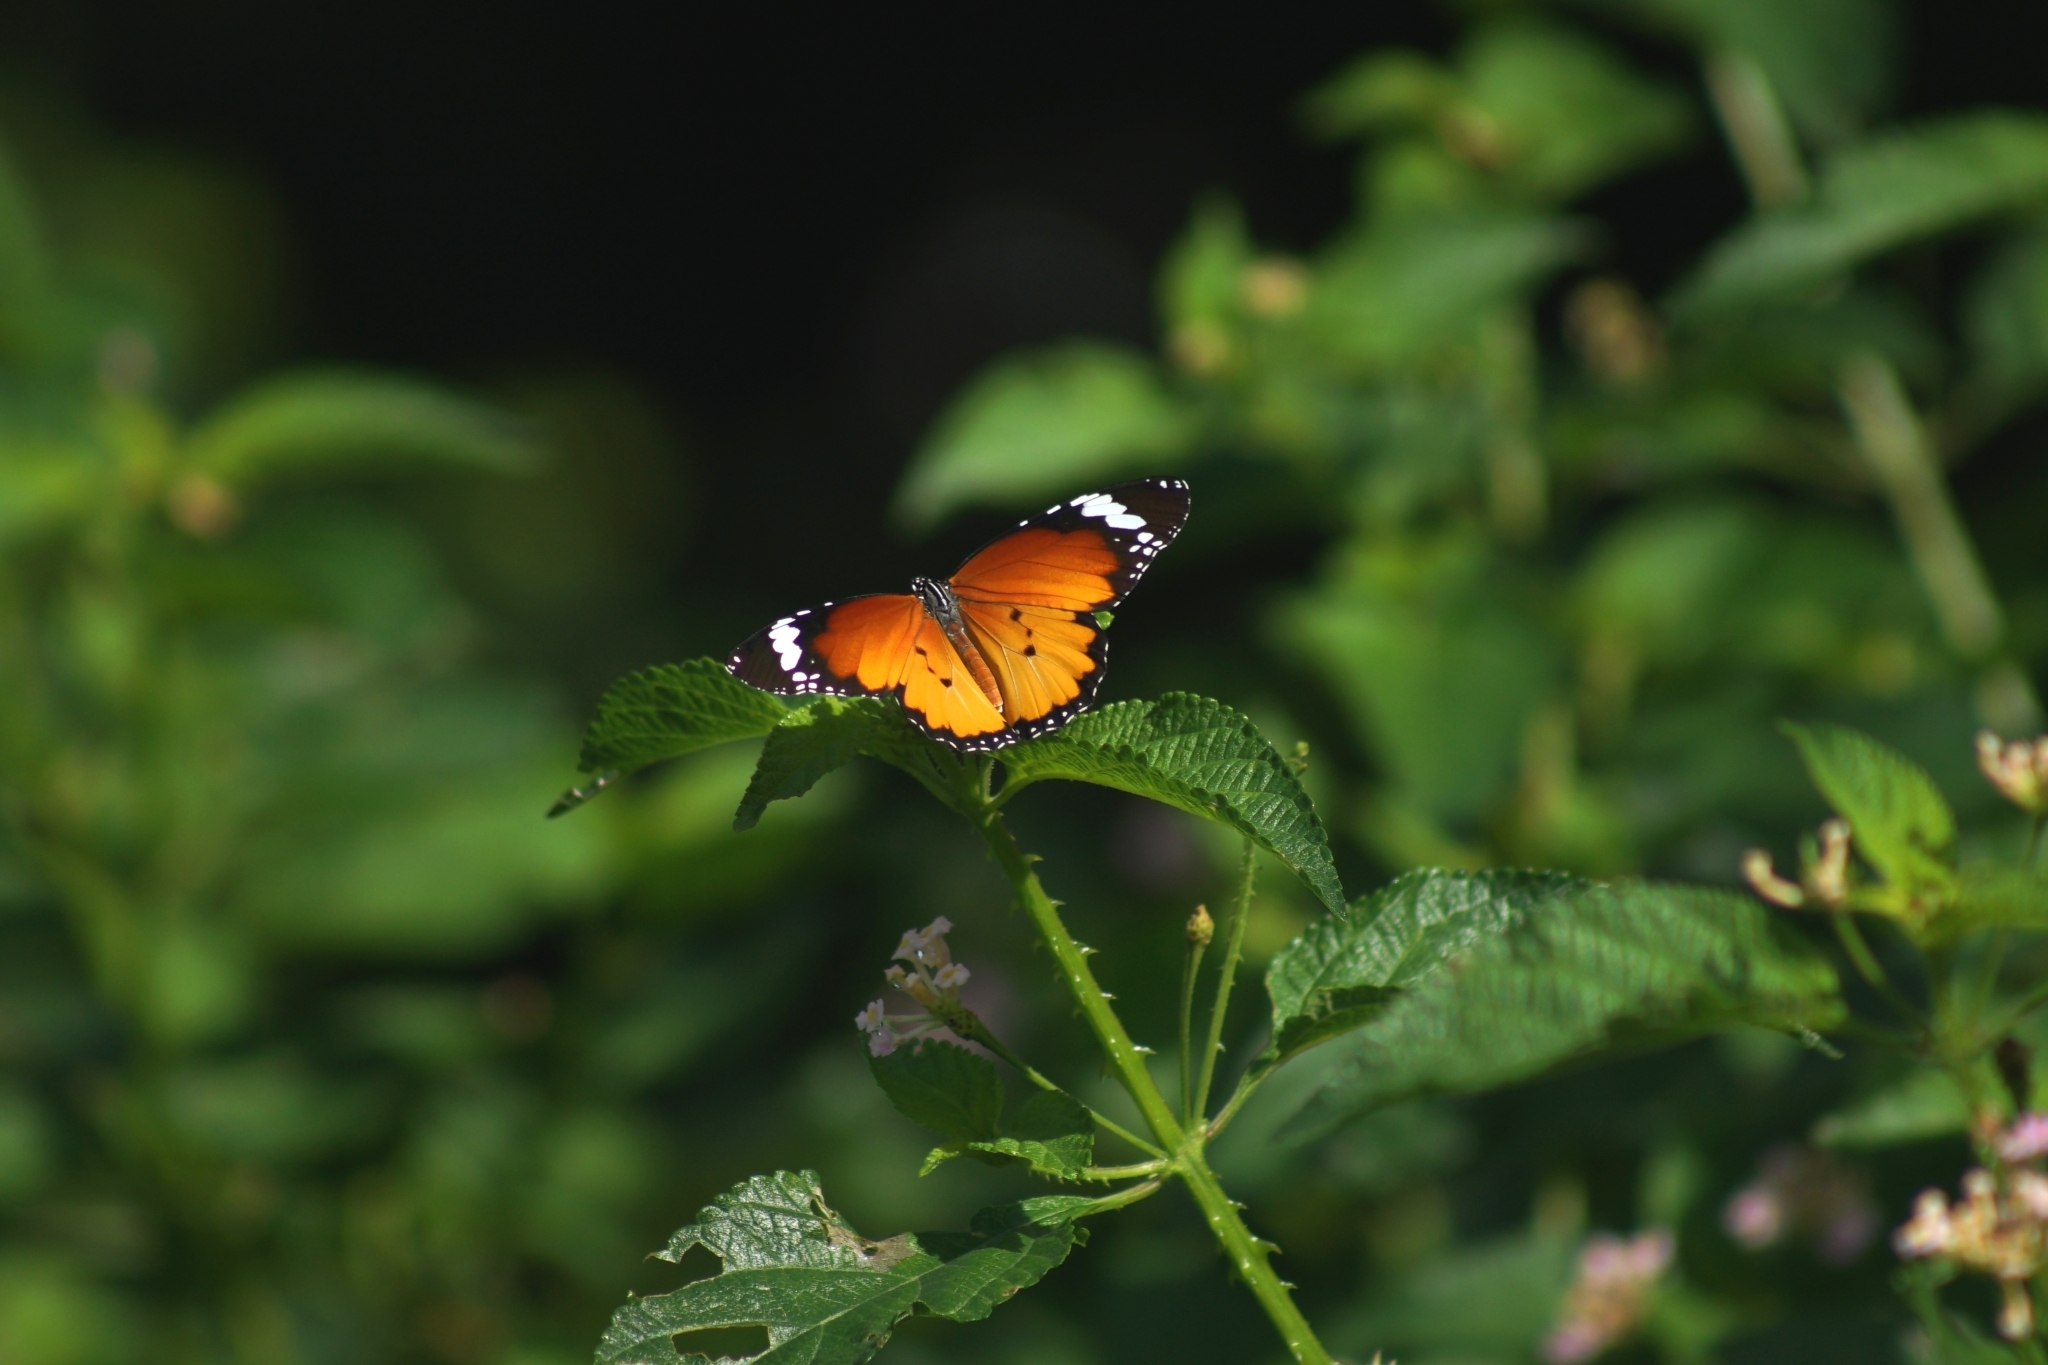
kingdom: Animalia
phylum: Arthropoda
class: Insecta
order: Lepidoptera
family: Nymphalidae
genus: Danaus
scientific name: Danaus chrysippus
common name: Plain tiger
